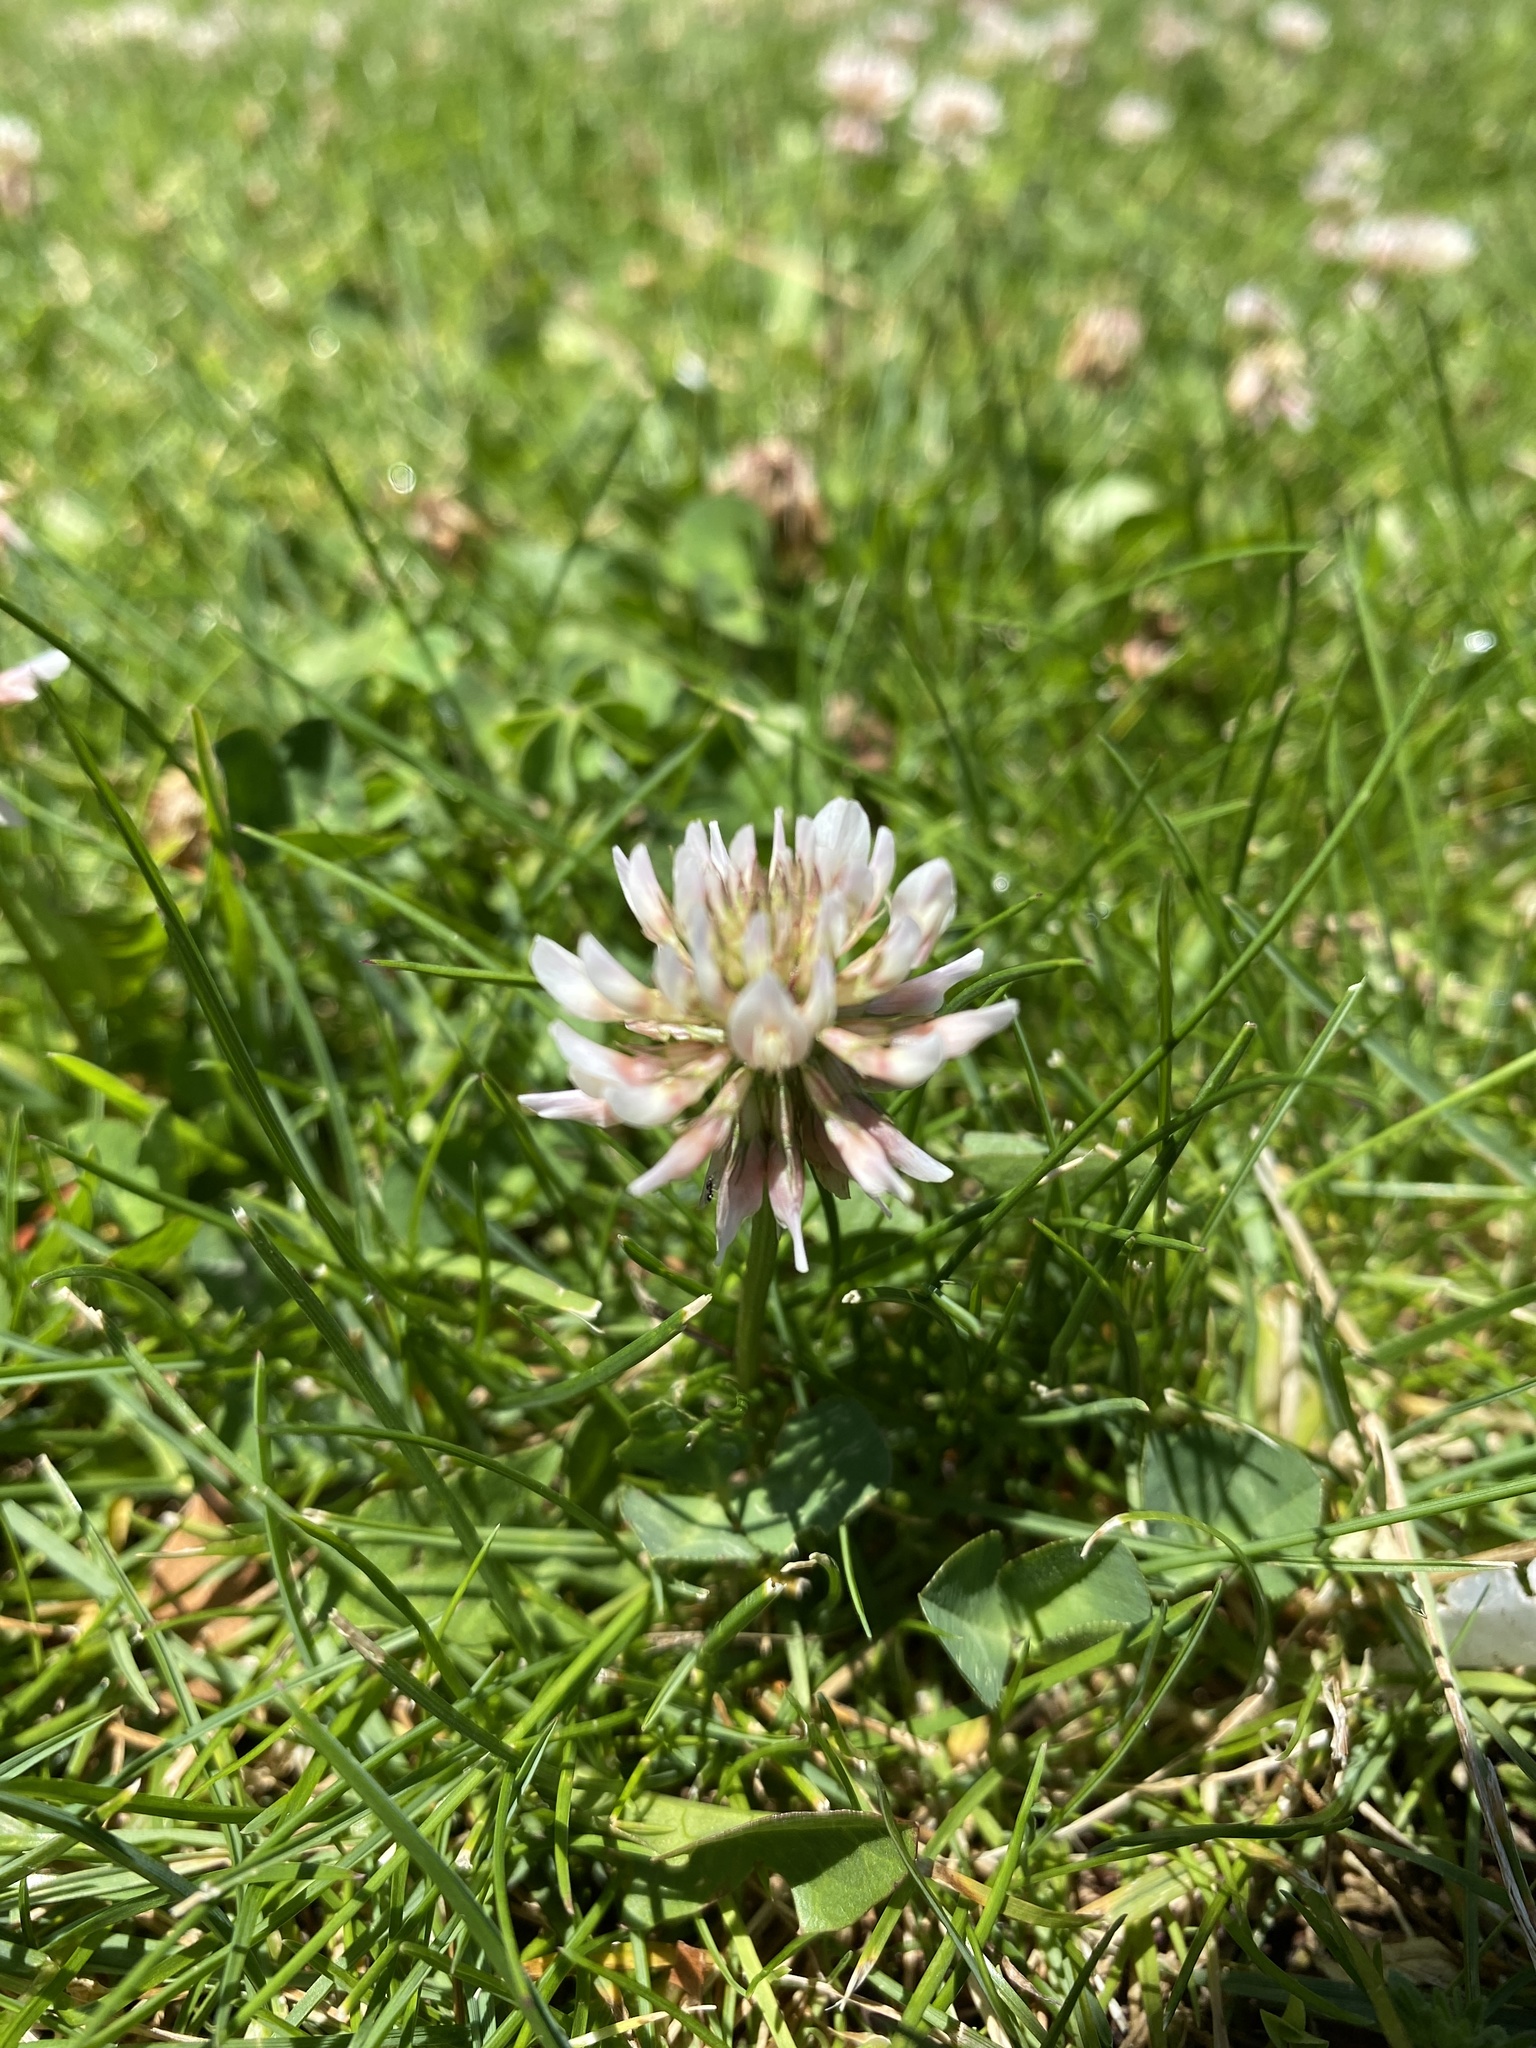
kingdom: Plantae
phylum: Tracheophyta
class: Magnoliopsida
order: Fabales
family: Fabaceae
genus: Trifolium
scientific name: Trifolium repens
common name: White clover
